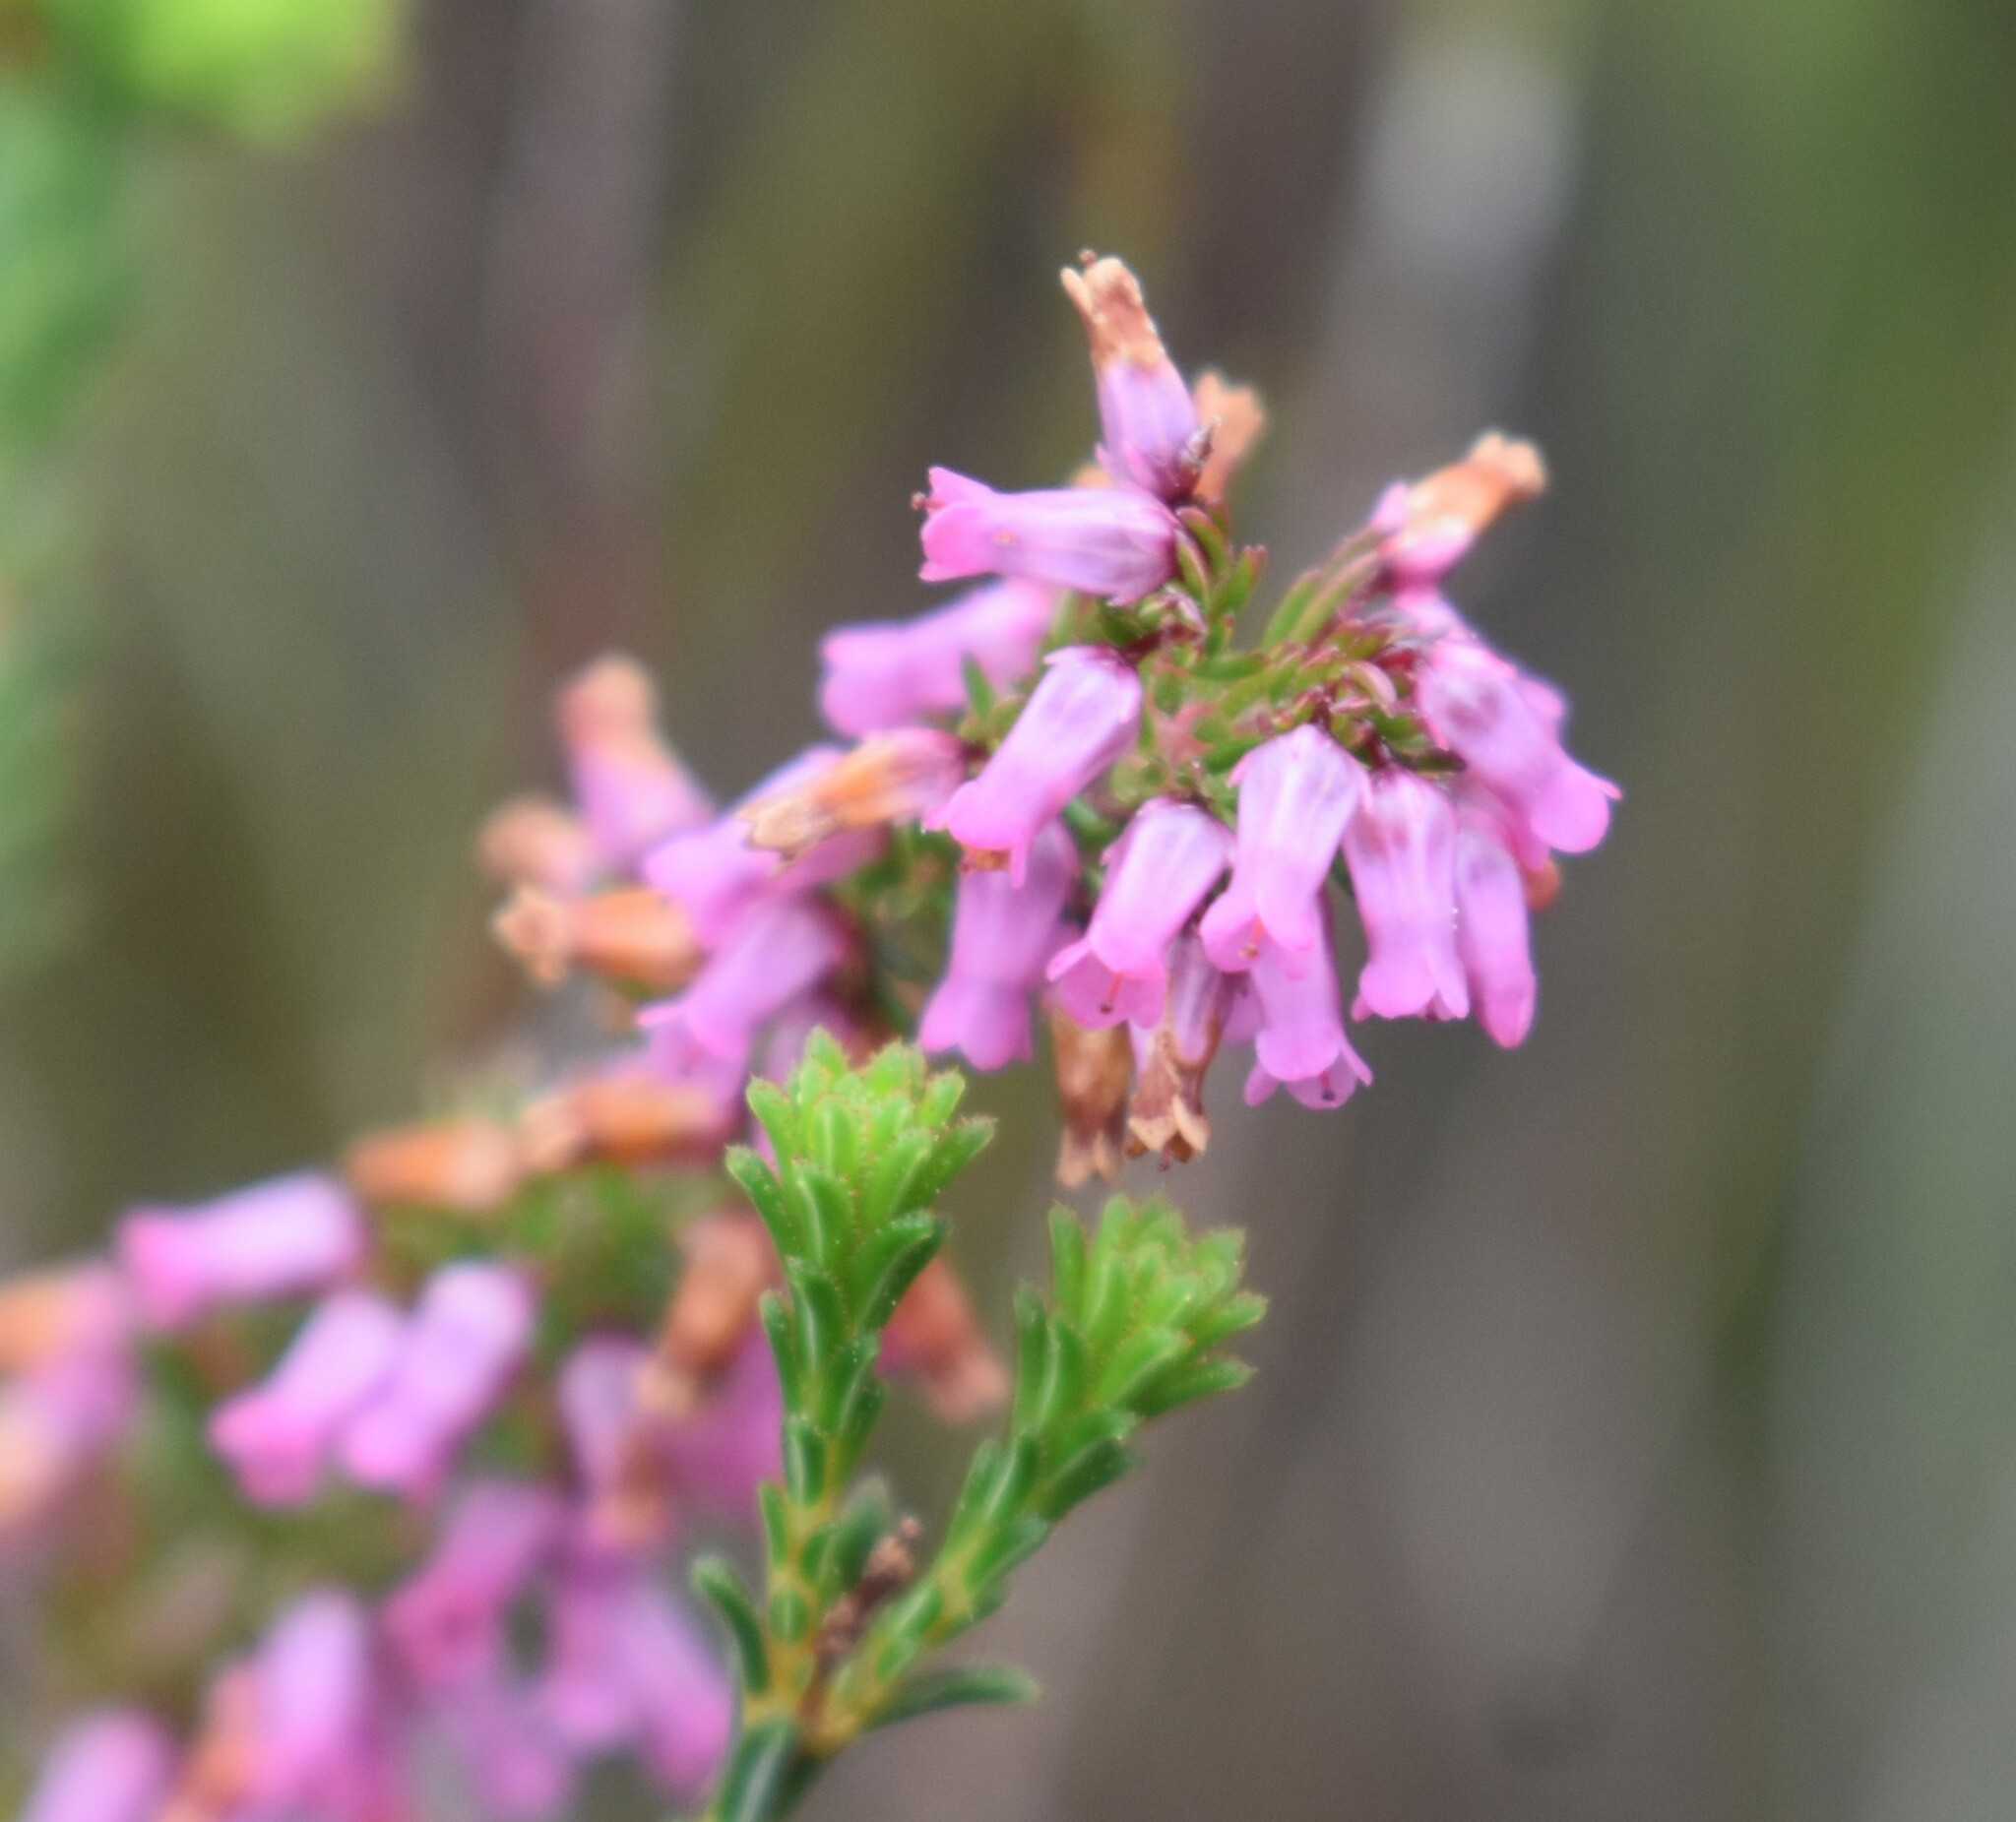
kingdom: Plantae
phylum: Tracheophyta
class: Magnoliopsida
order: Ericales
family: Ericaceae
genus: Erica
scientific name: Erica intervallaris
